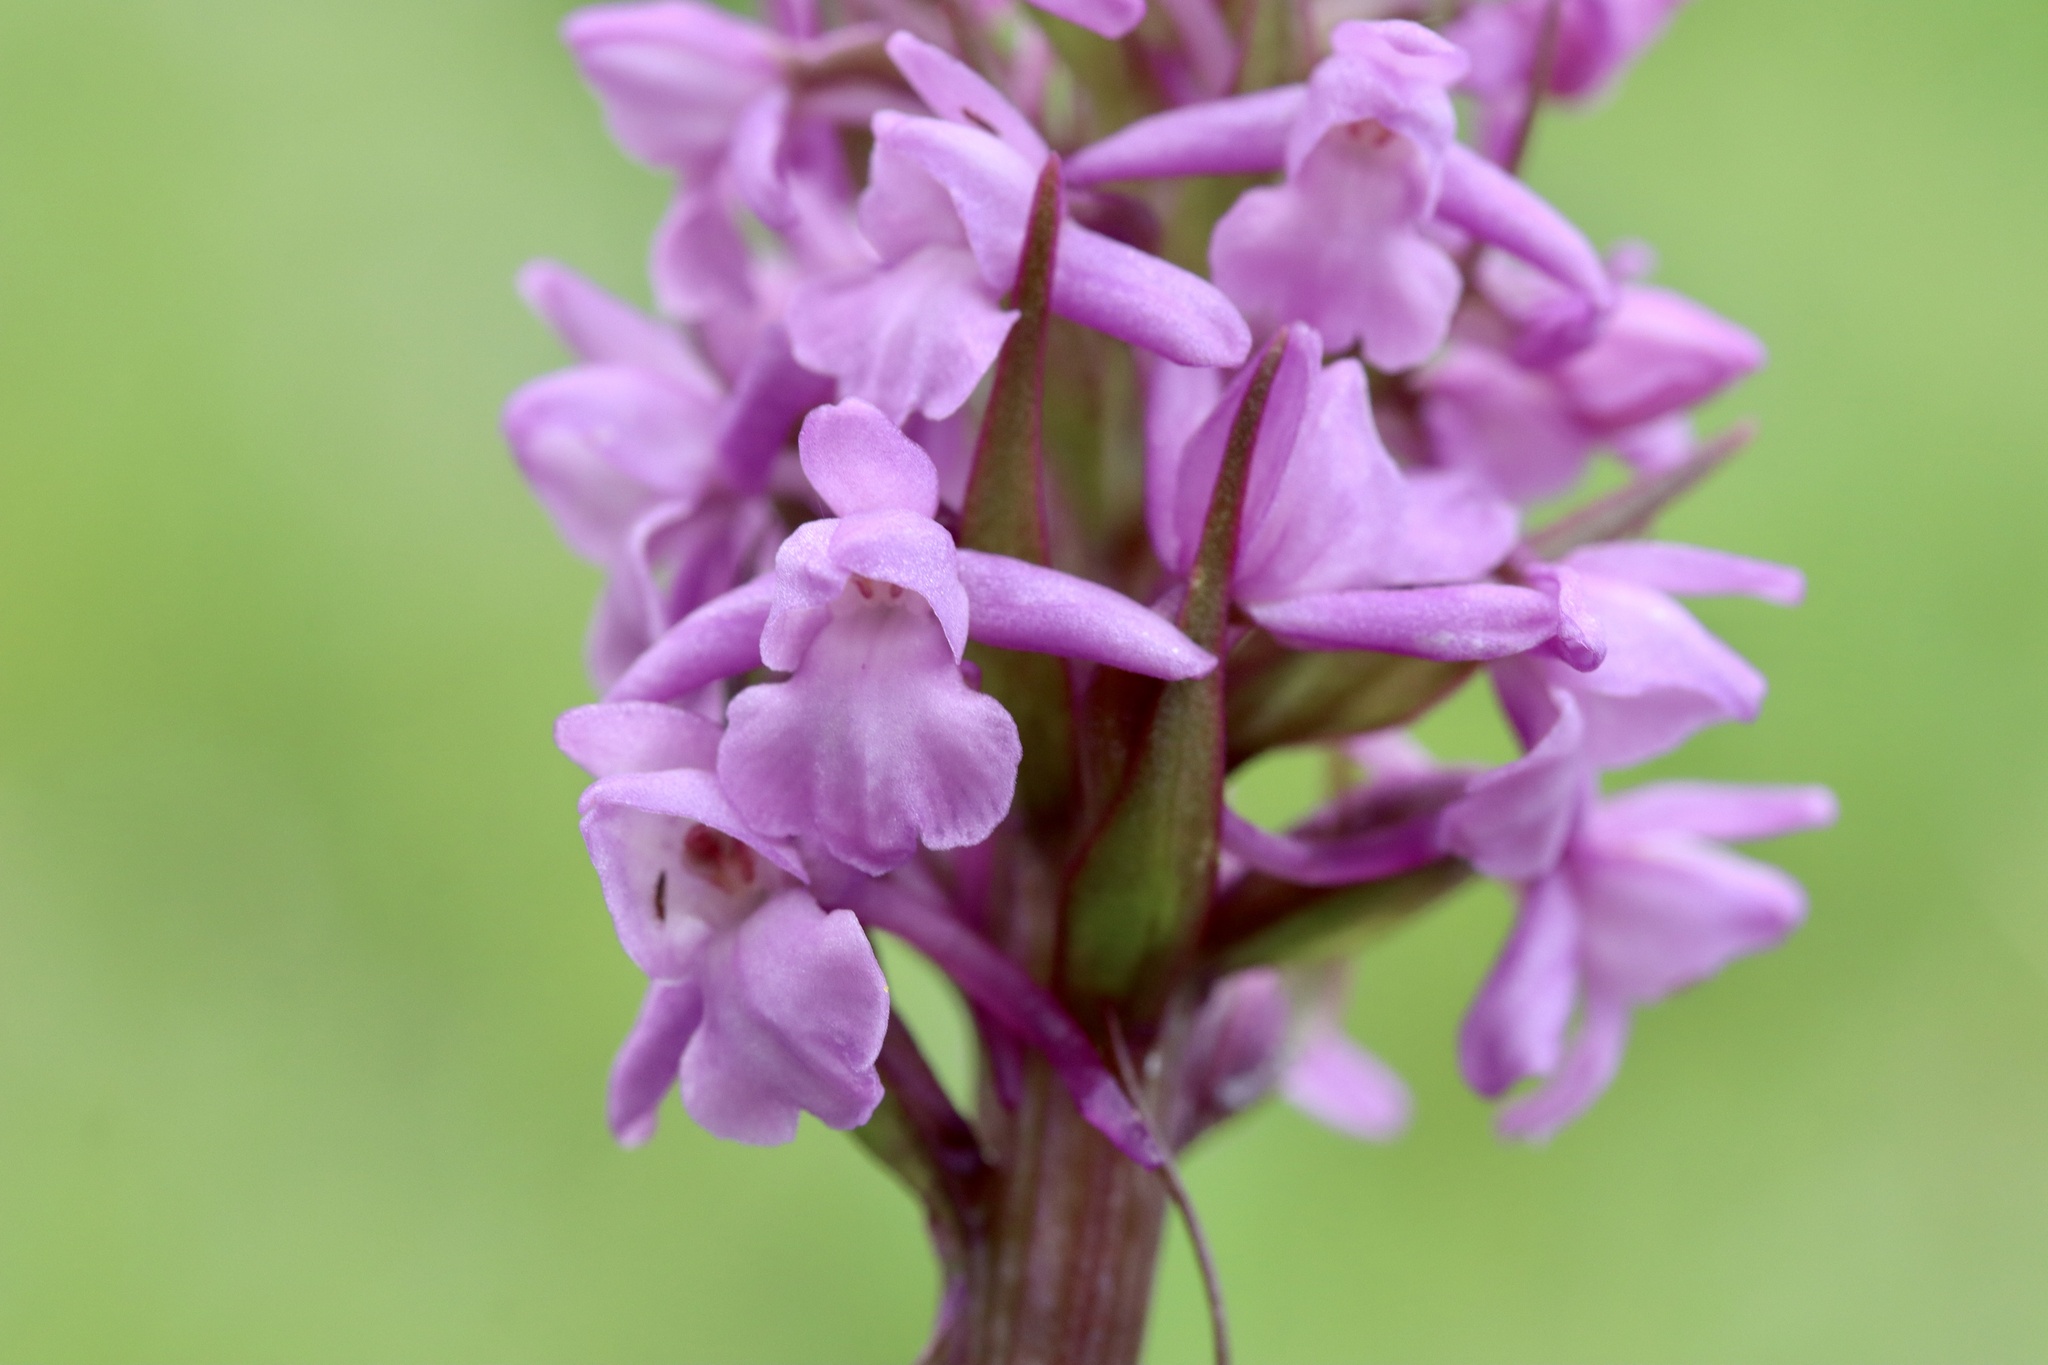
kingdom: Plantae
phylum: Tracheophyta
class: Liliopsida
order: Asparagales
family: Orchidaceae
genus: Gymnadenia
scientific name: Gymnadenia conopsea
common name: Fragrant orchid
